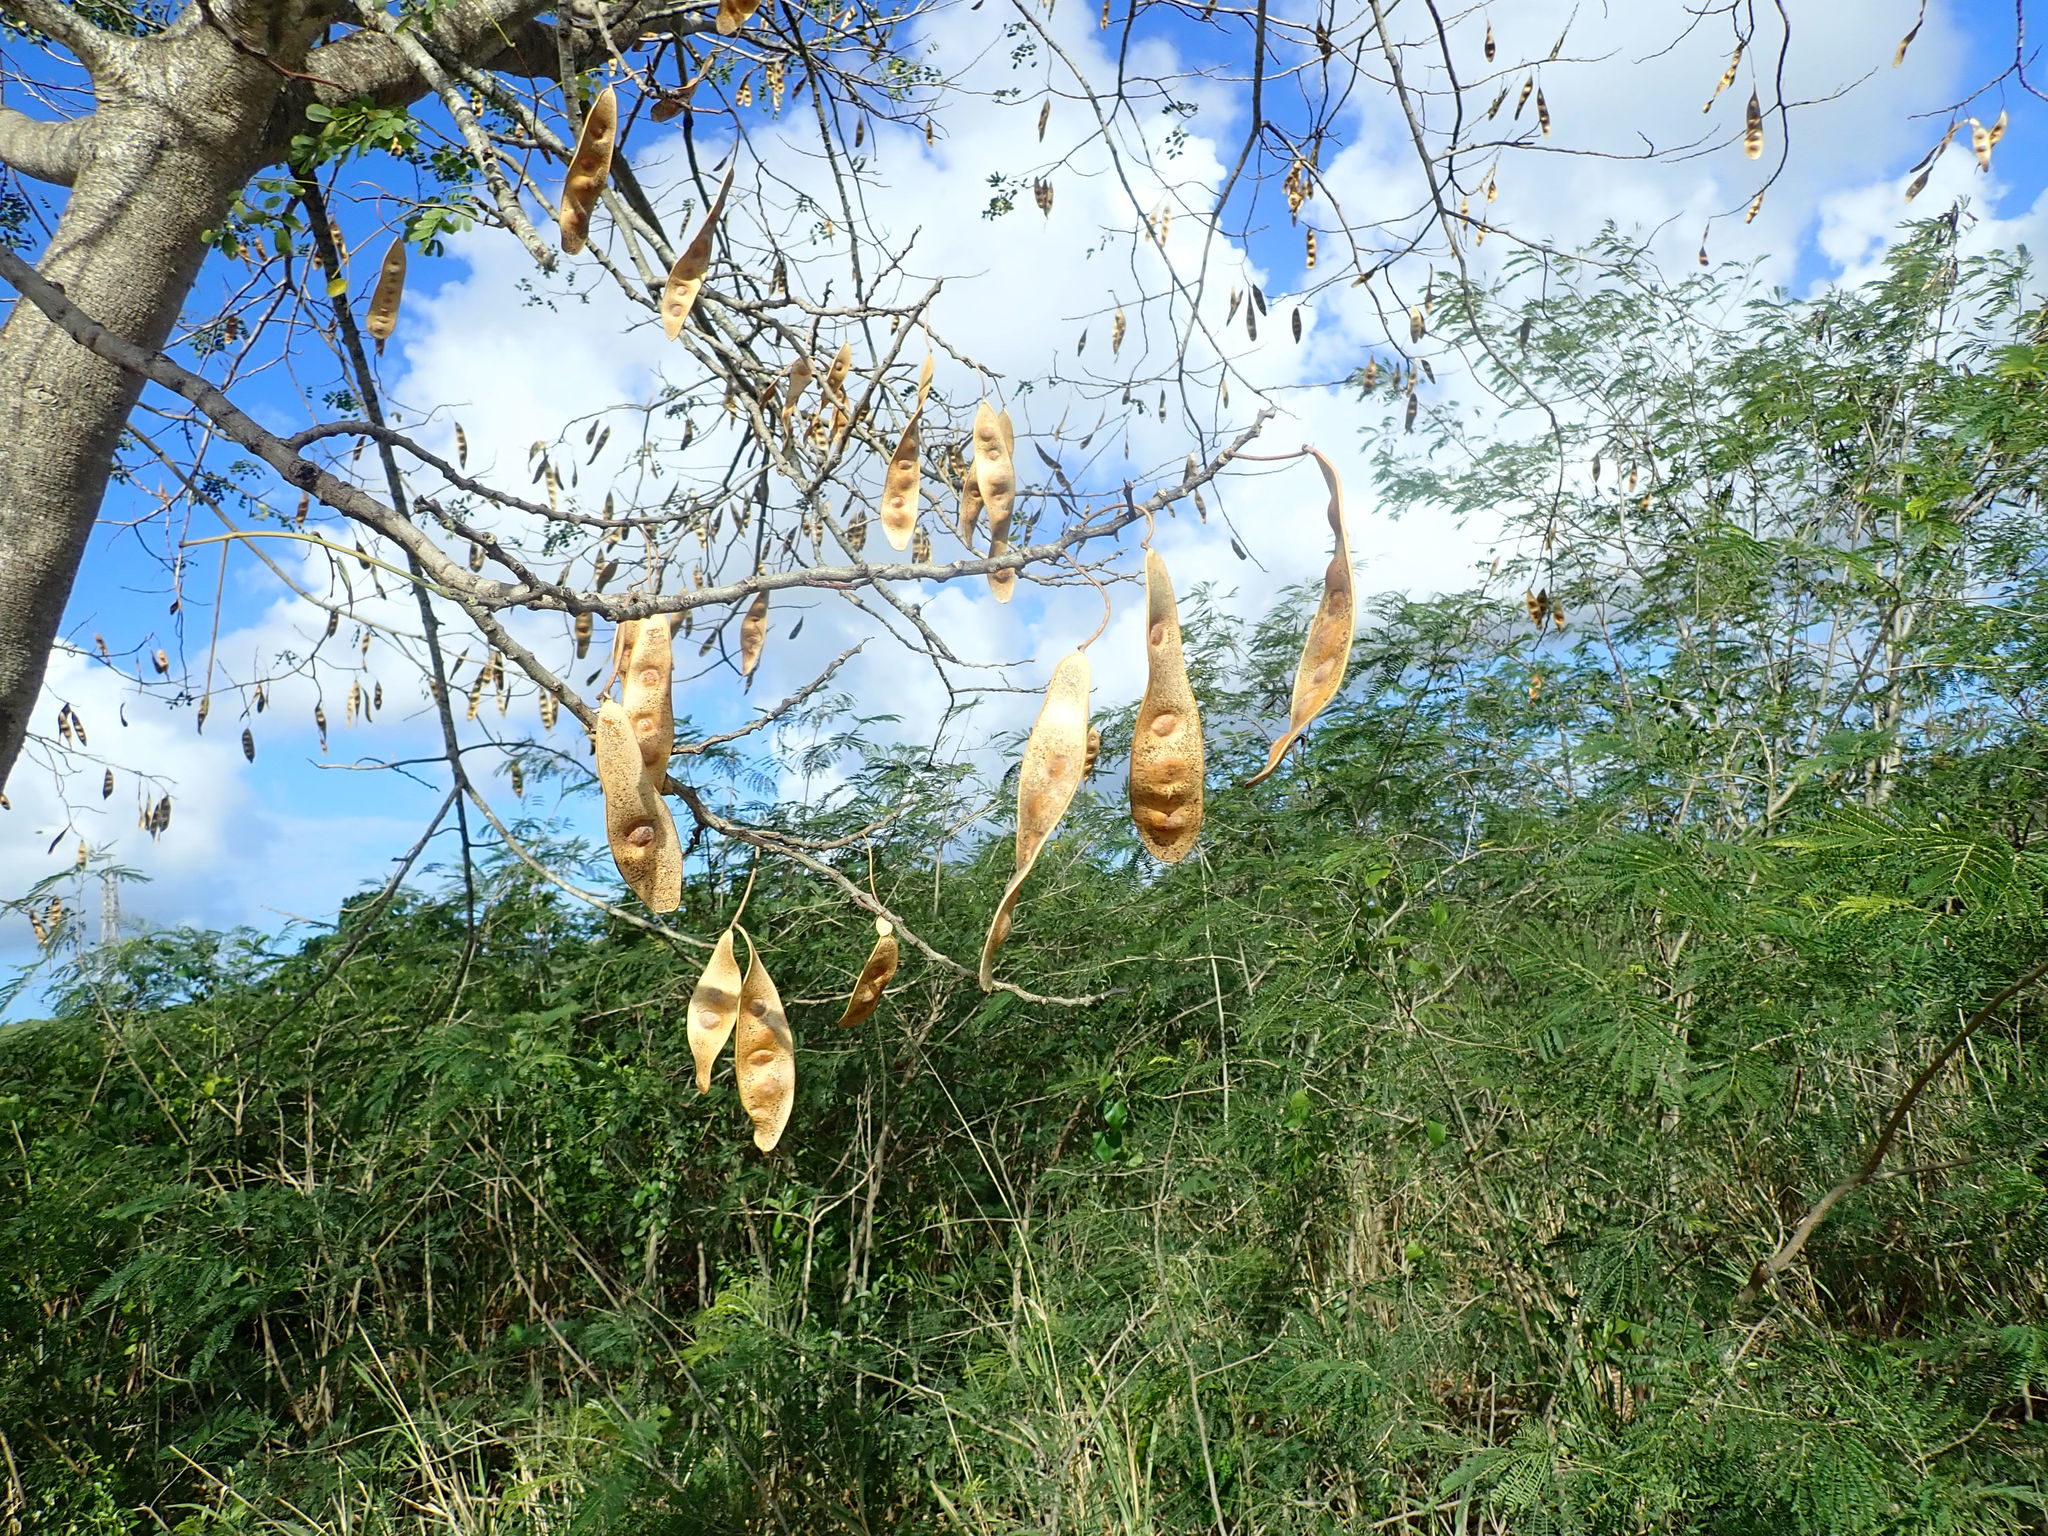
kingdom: Plantae
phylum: Tracheophyta
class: Magnoliopsida
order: Fabales
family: Fabaceae
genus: Albizia
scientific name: Albizia lebbeck
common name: Woman's tongue
